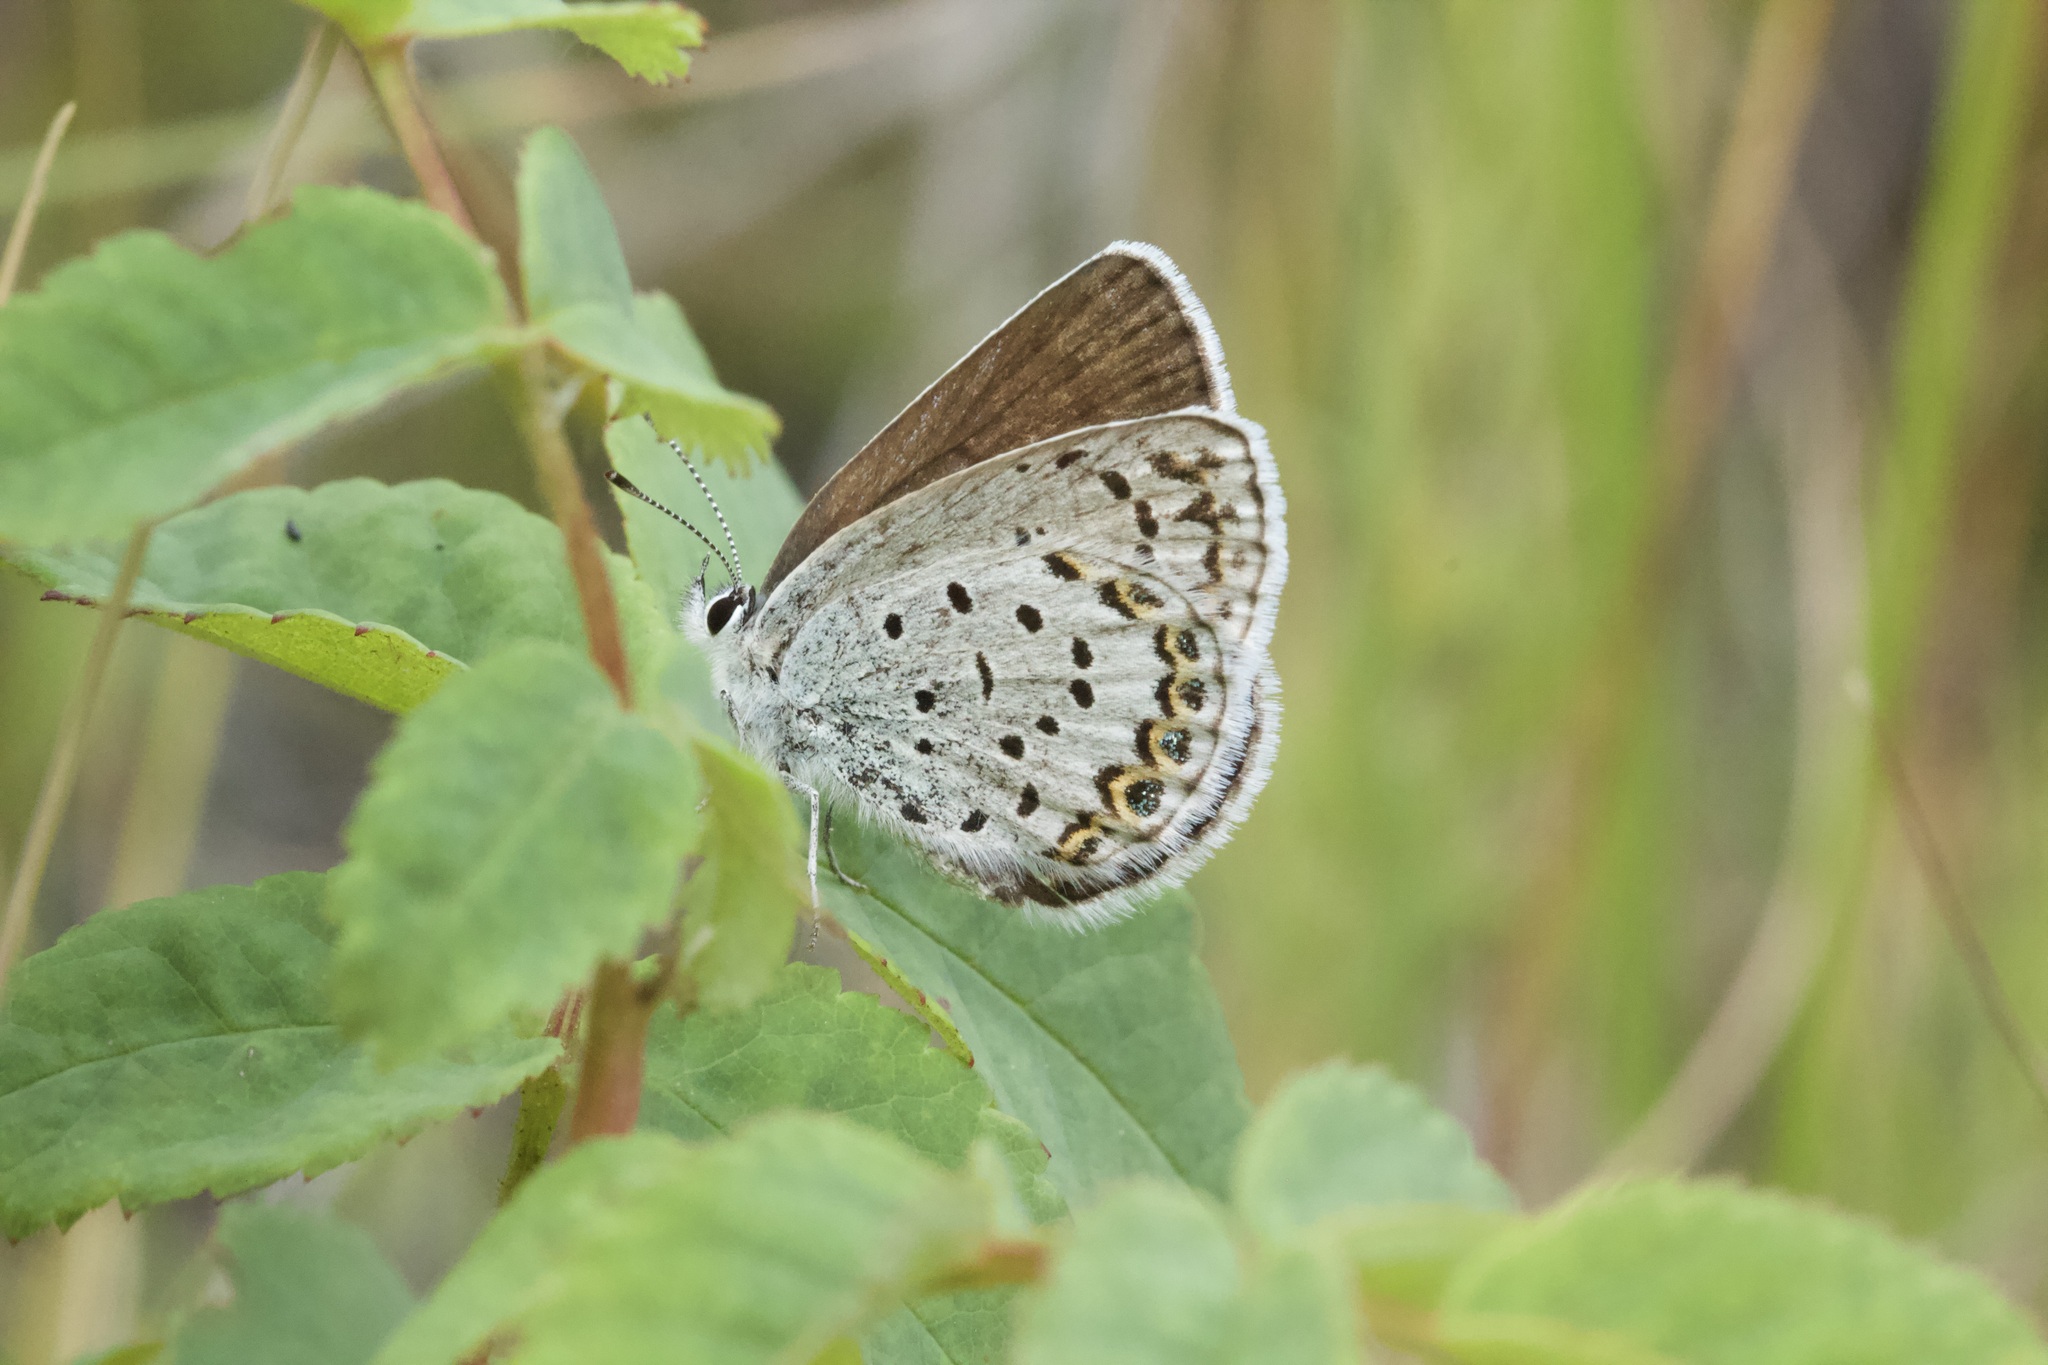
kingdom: Animalia
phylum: Arthropoda
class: Insecta
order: Lepidoptera
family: Lycaenidae
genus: Lycaeides
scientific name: Lycaeides idas
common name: Northern blue
